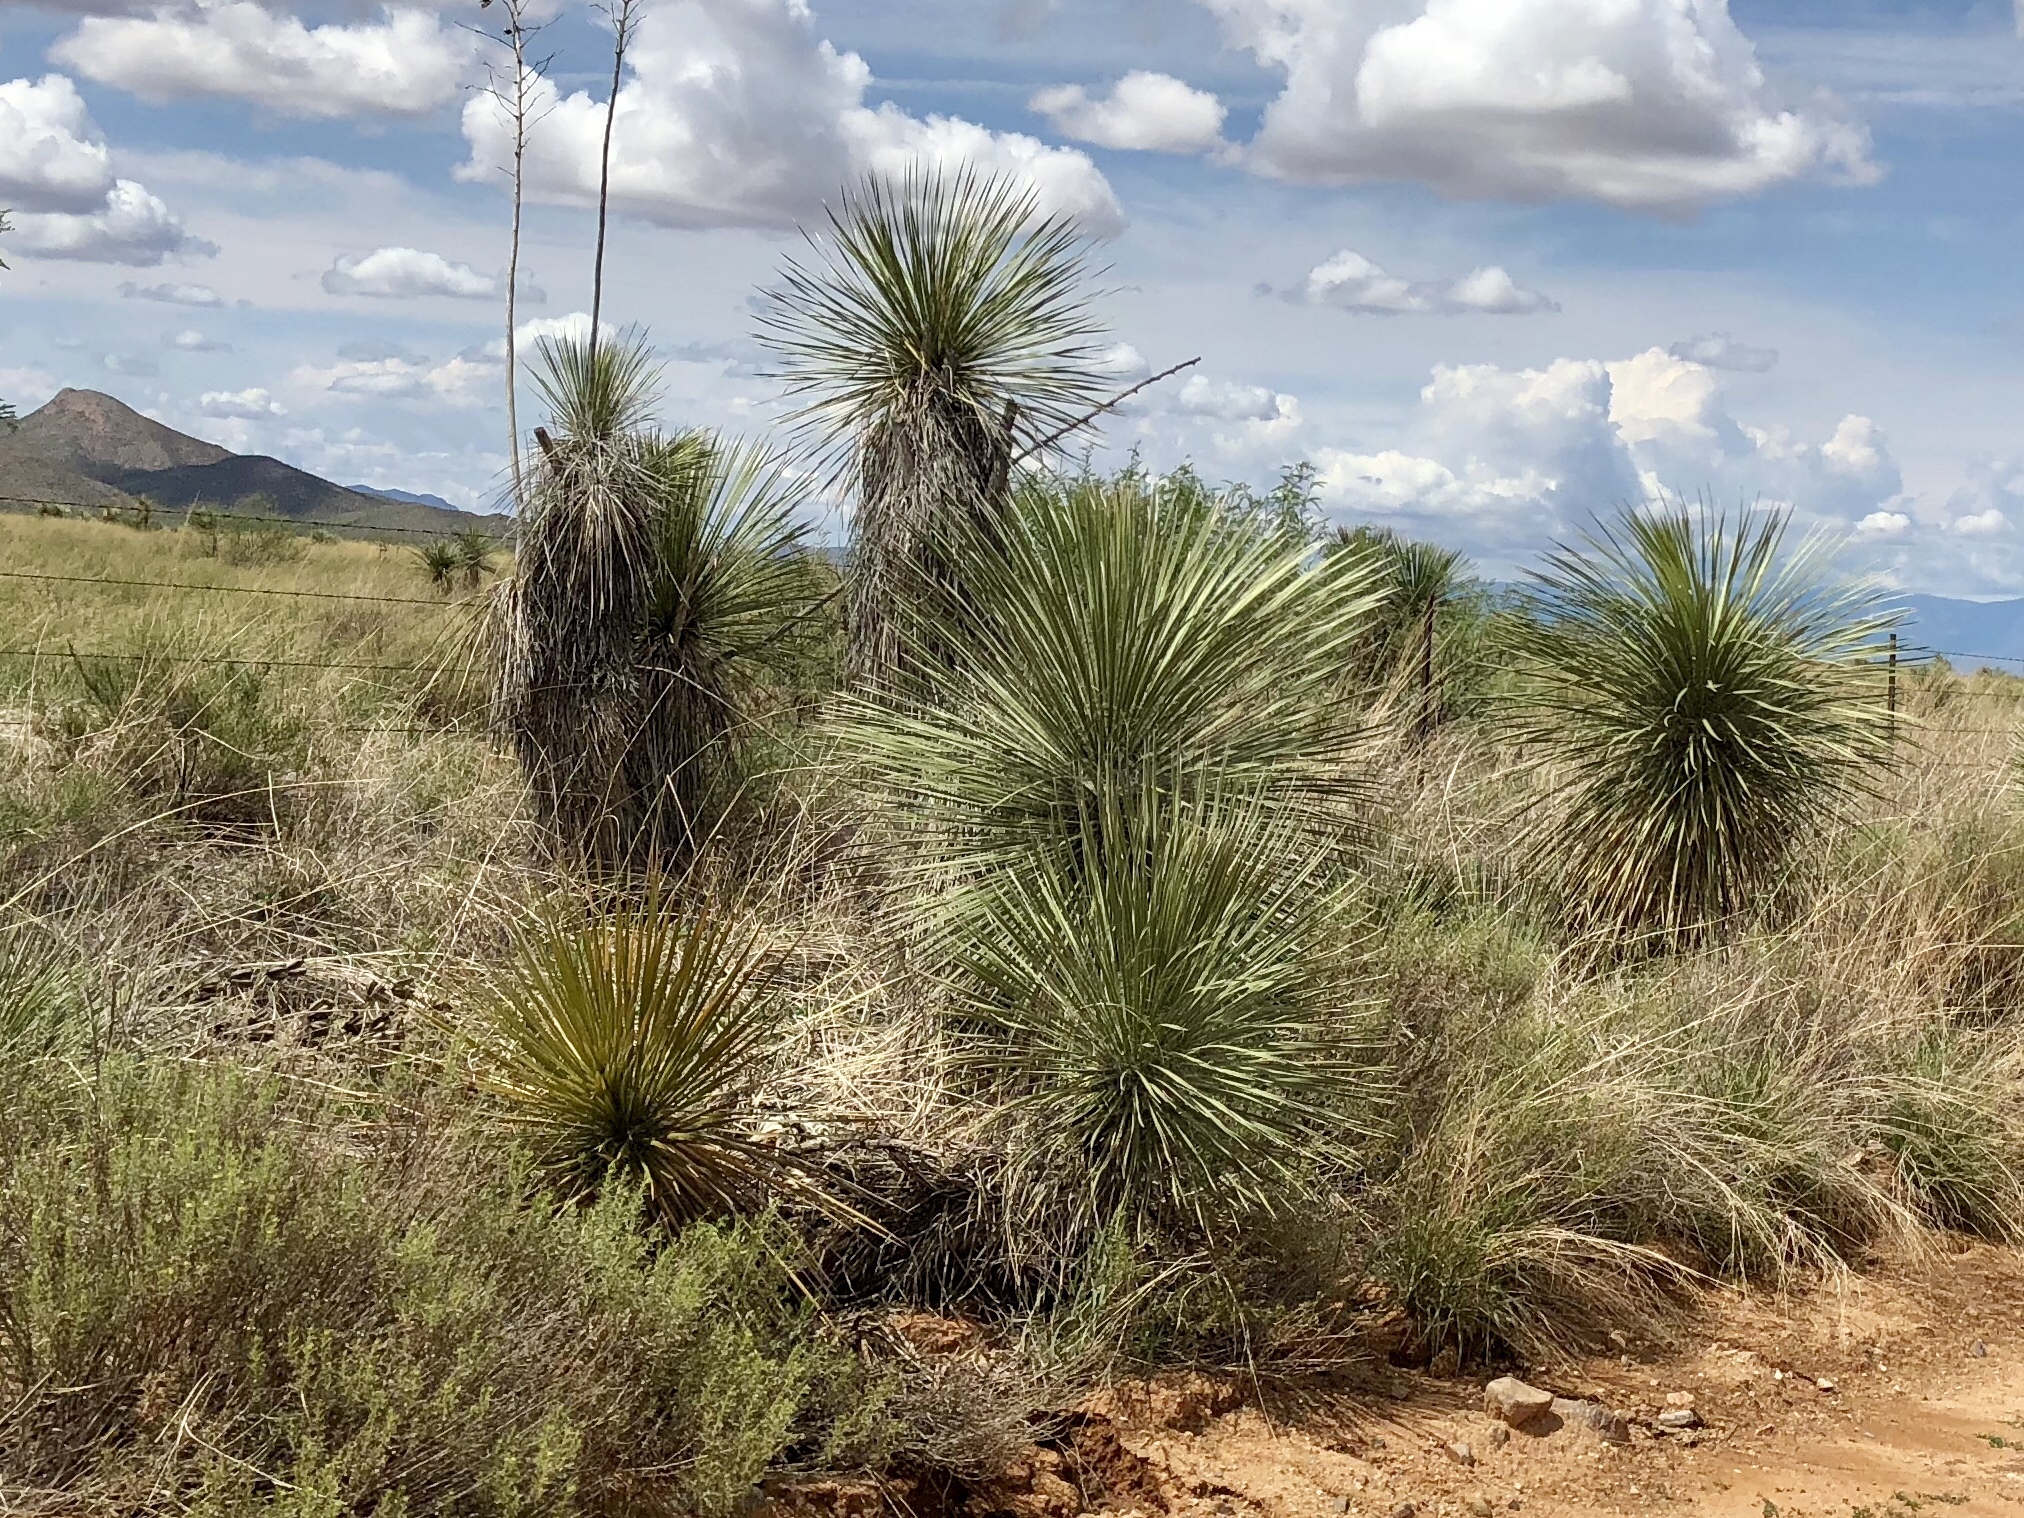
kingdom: Plantae
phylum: Tracheophyta
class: Liliopsida
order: Asparagales
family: Asparagaceae
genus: Yucca
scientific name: Yucca elata
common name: Palmella
